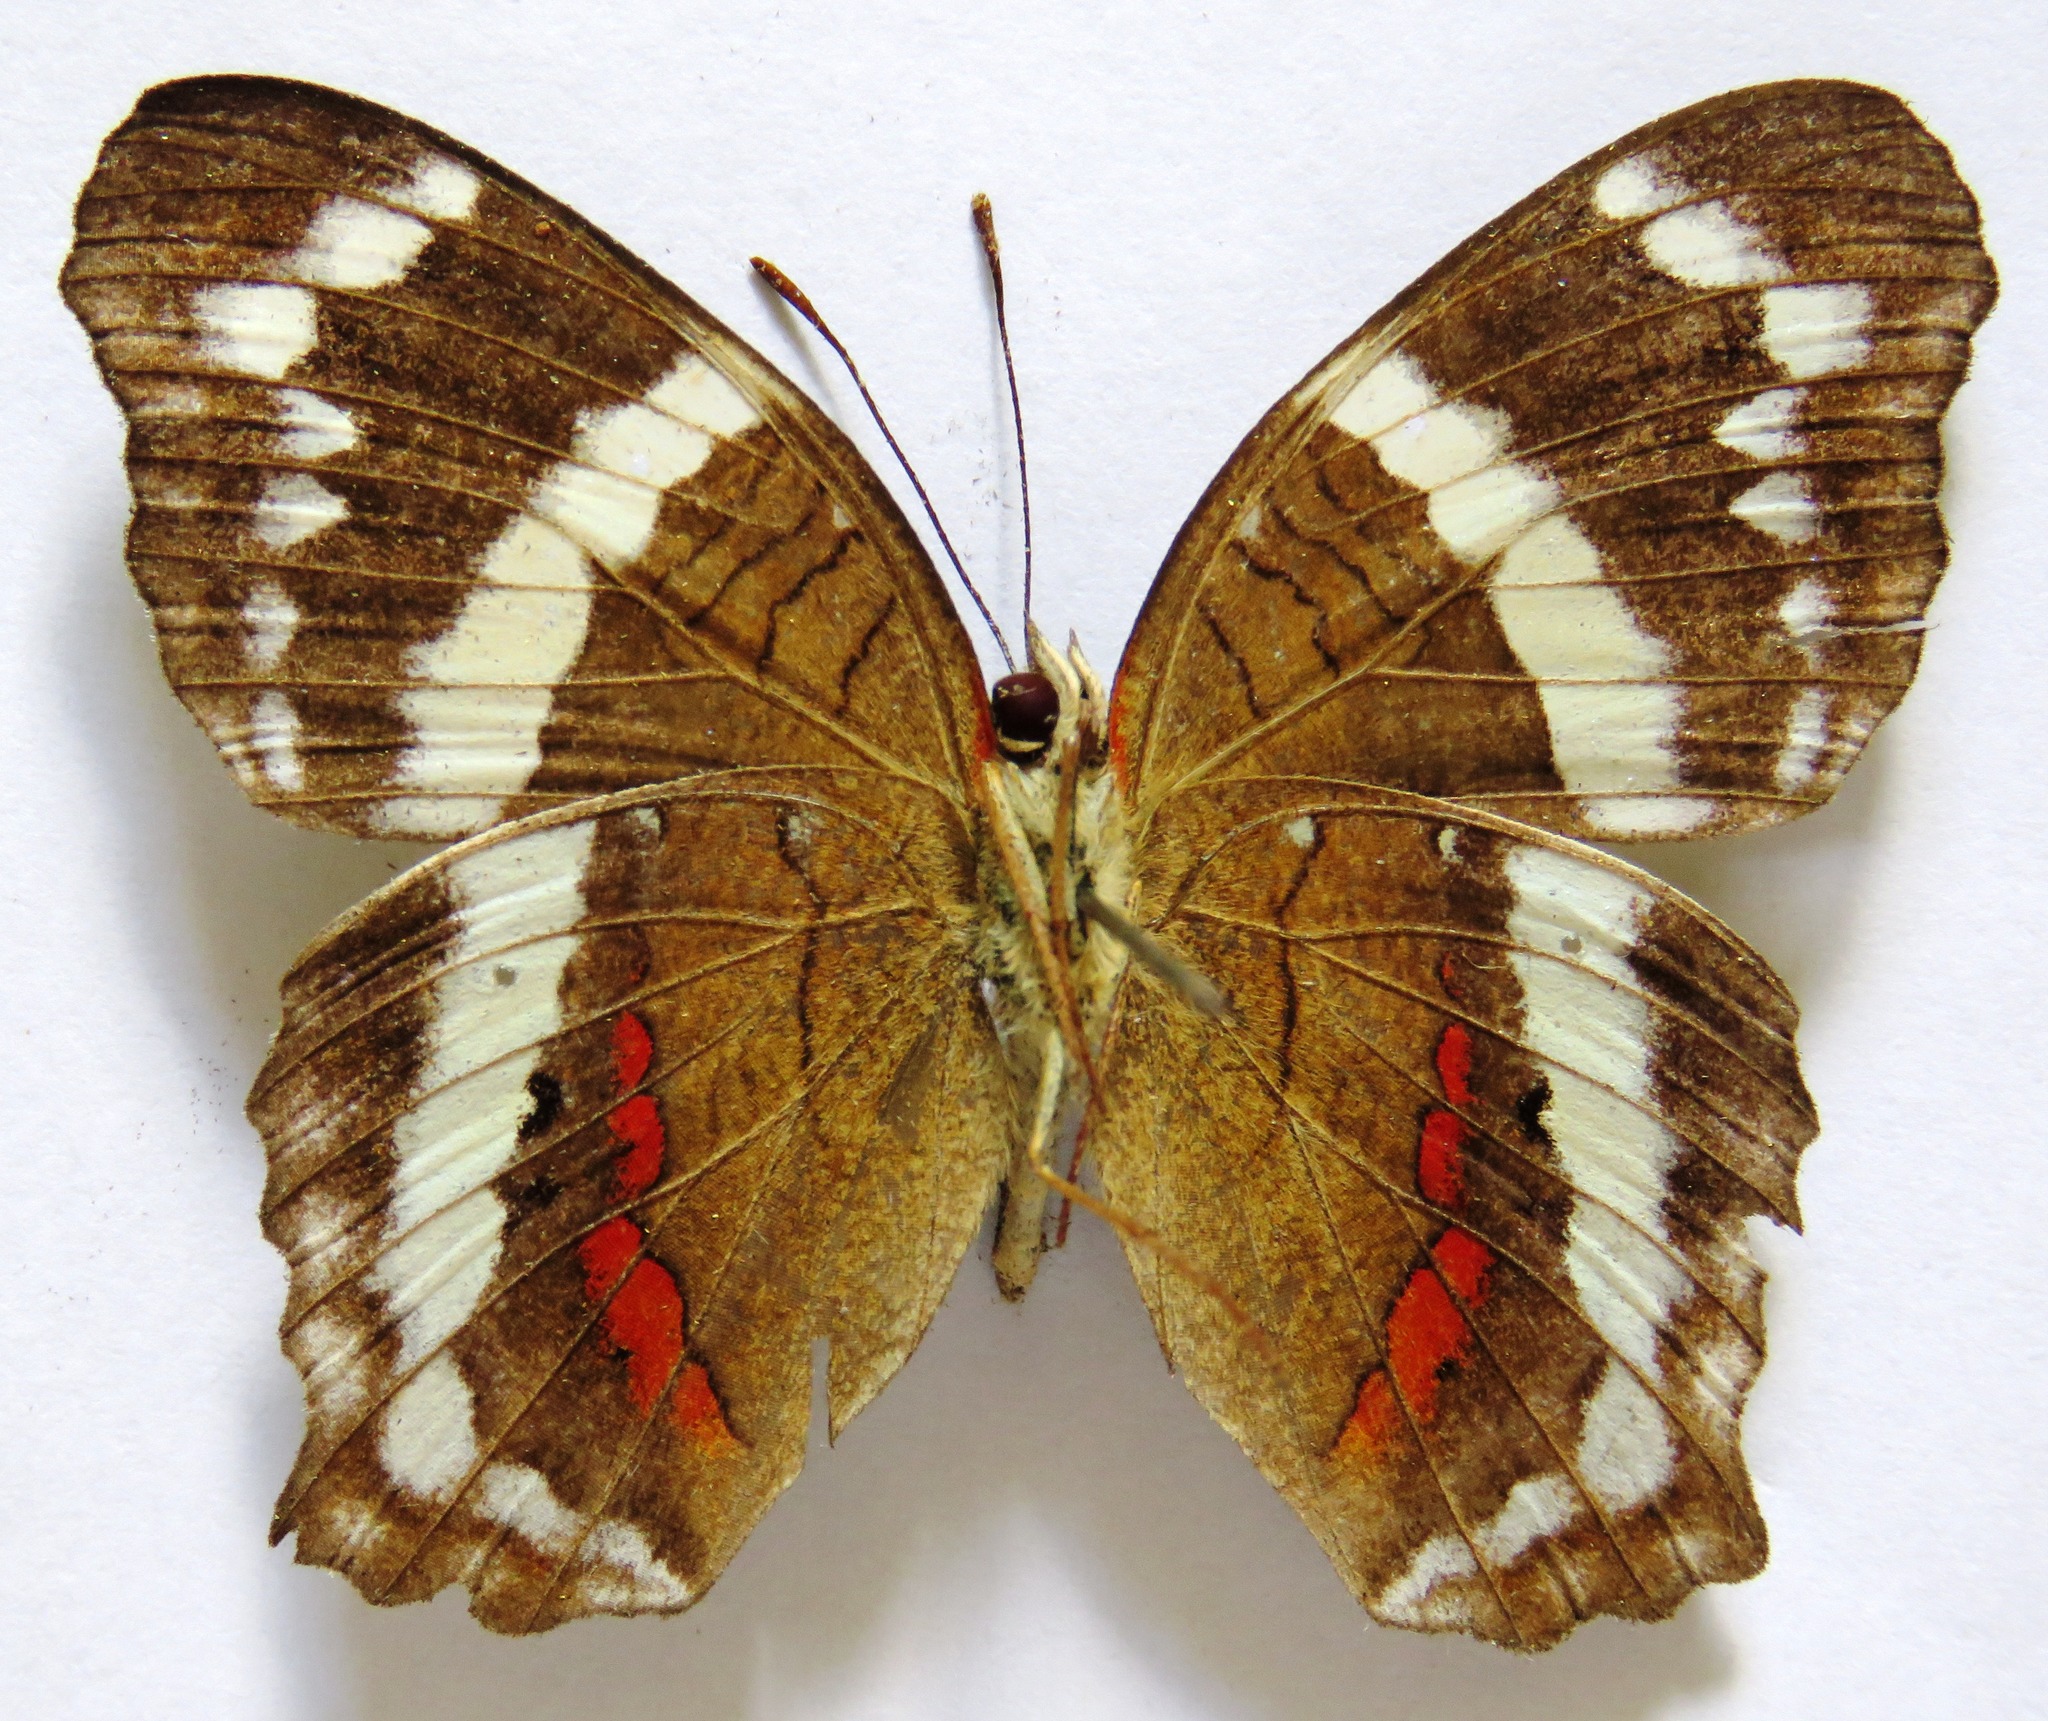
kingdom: Animalia
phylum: Arthropoda
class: Insecta
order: Lepidoptera
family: Nymphalidae
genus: Anartia
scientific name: Anartia fatima
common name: Banded peacock
